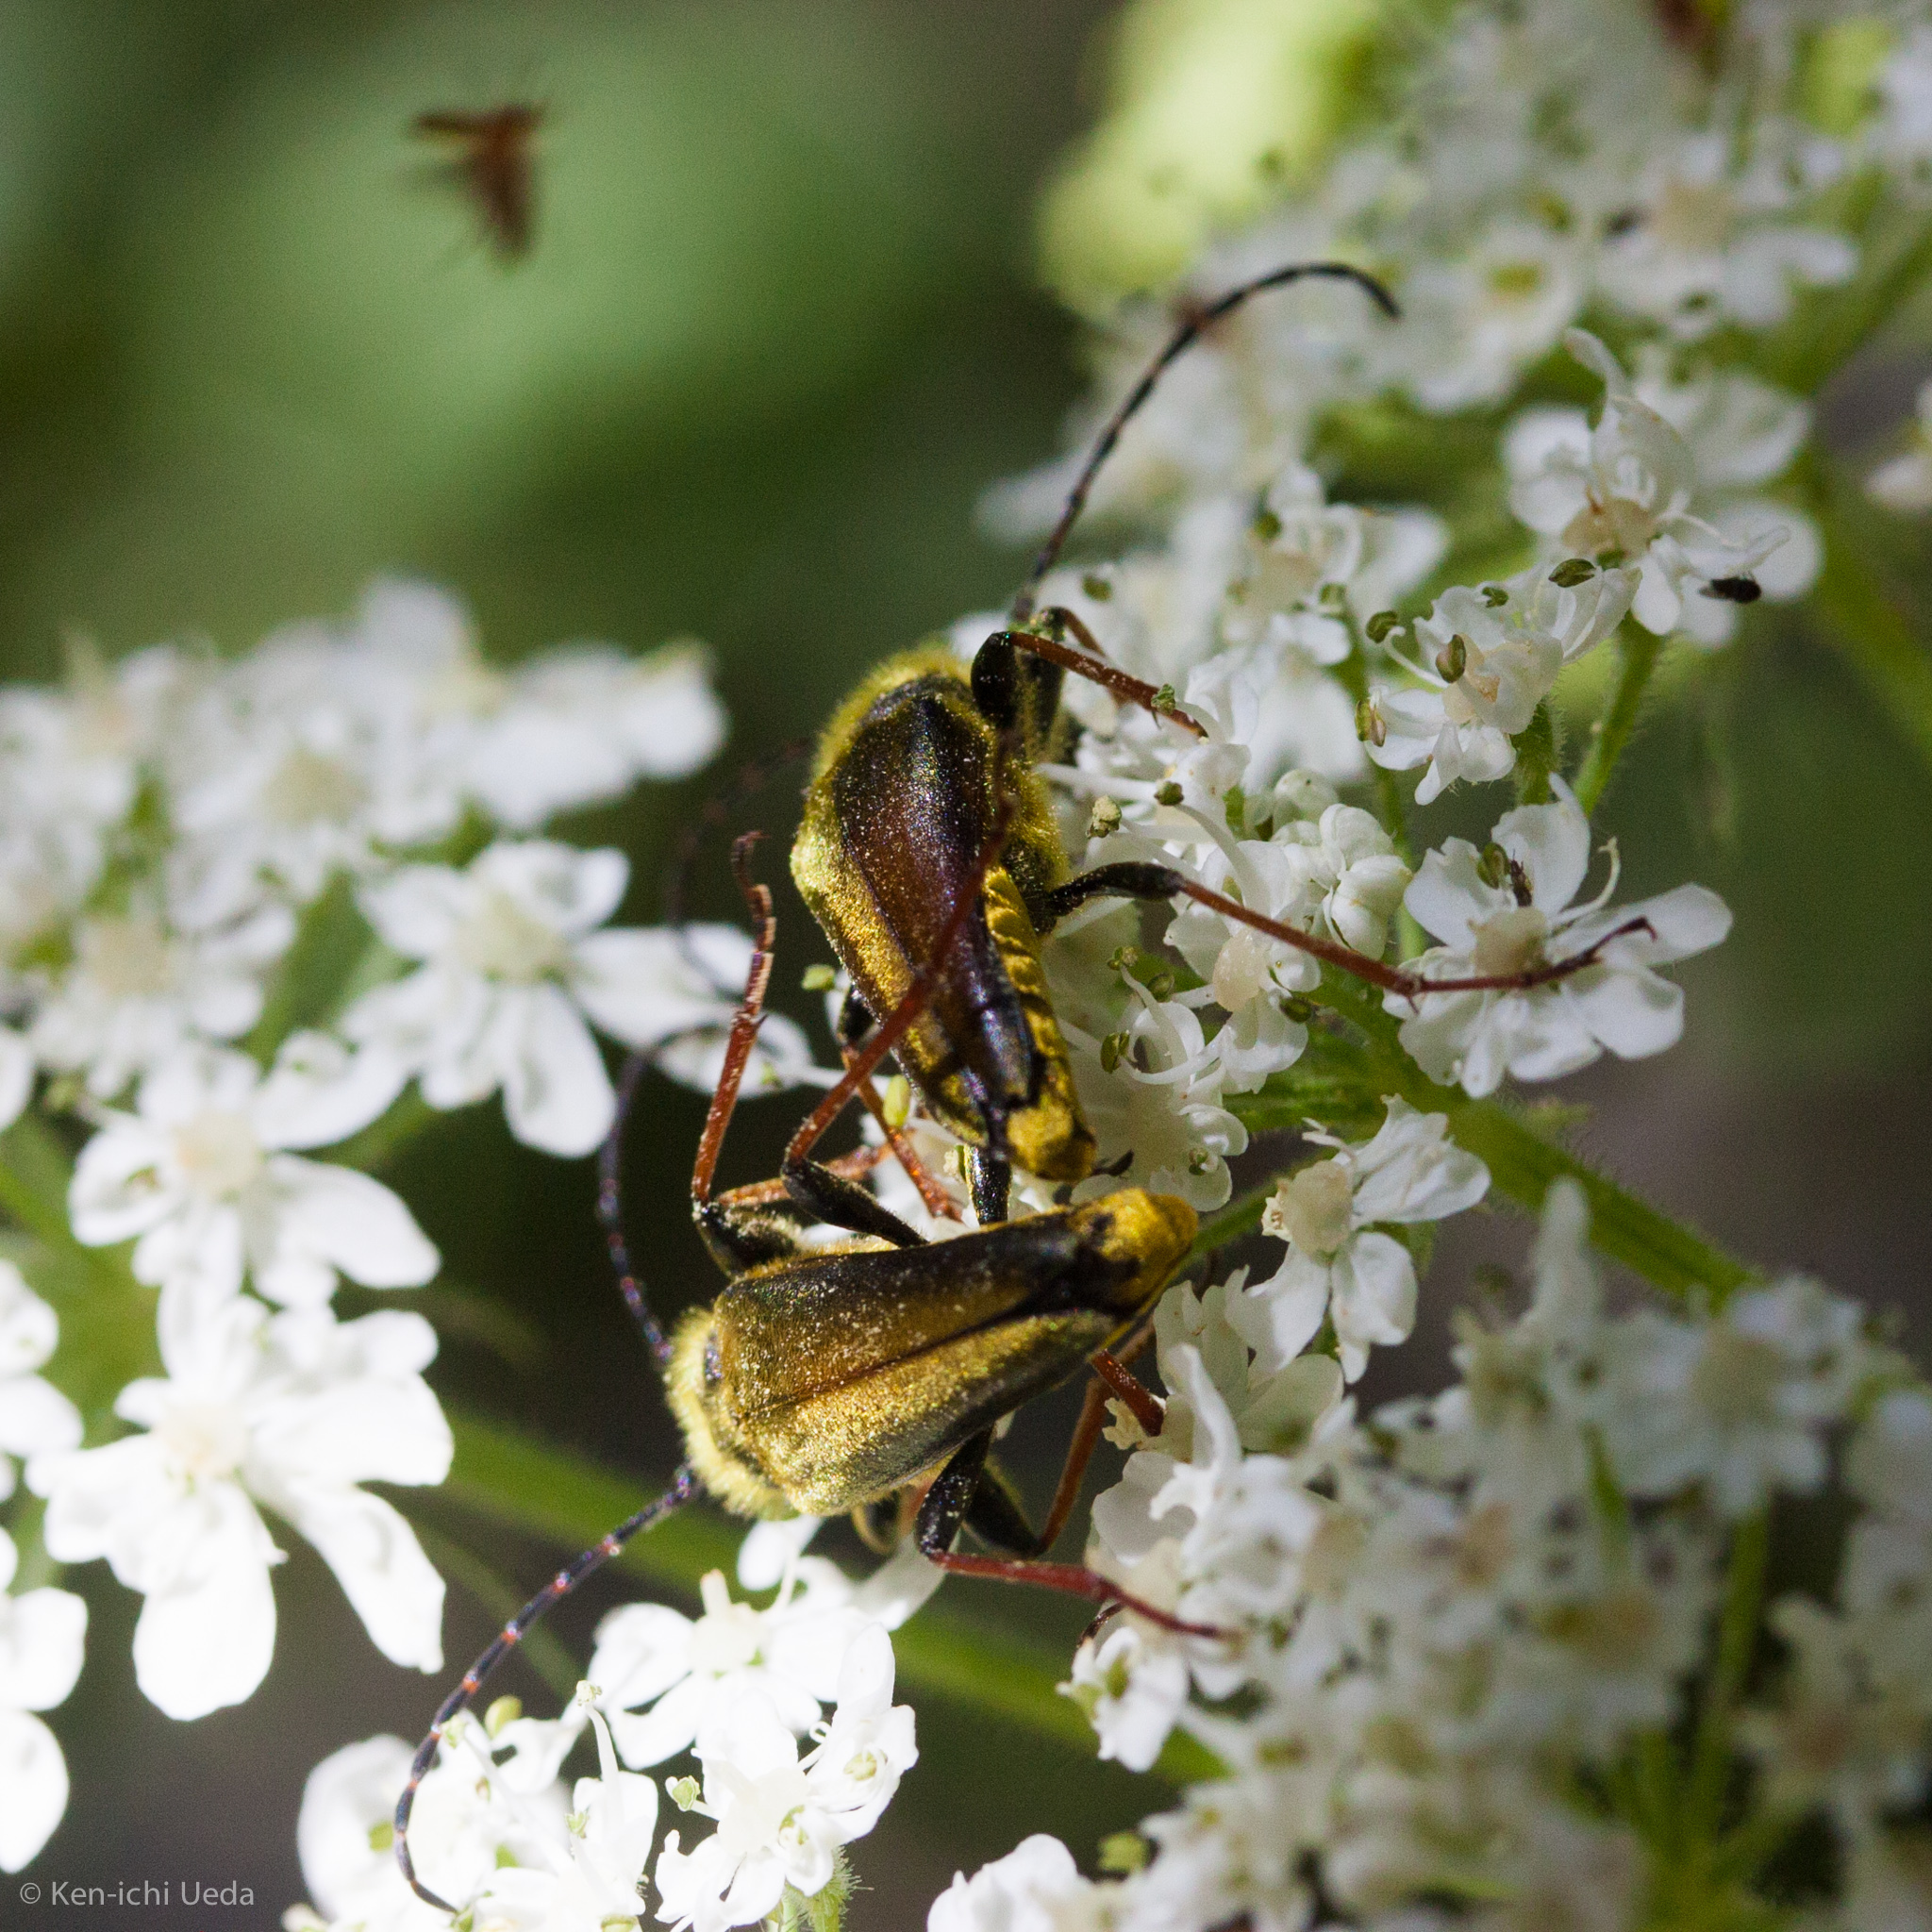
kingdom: Animalia
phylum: Arthropoda
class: Insecta
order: Coleoptera
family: Cerambycidae
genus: Cosmosalia
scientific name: Cosmosalia chrysocoma
